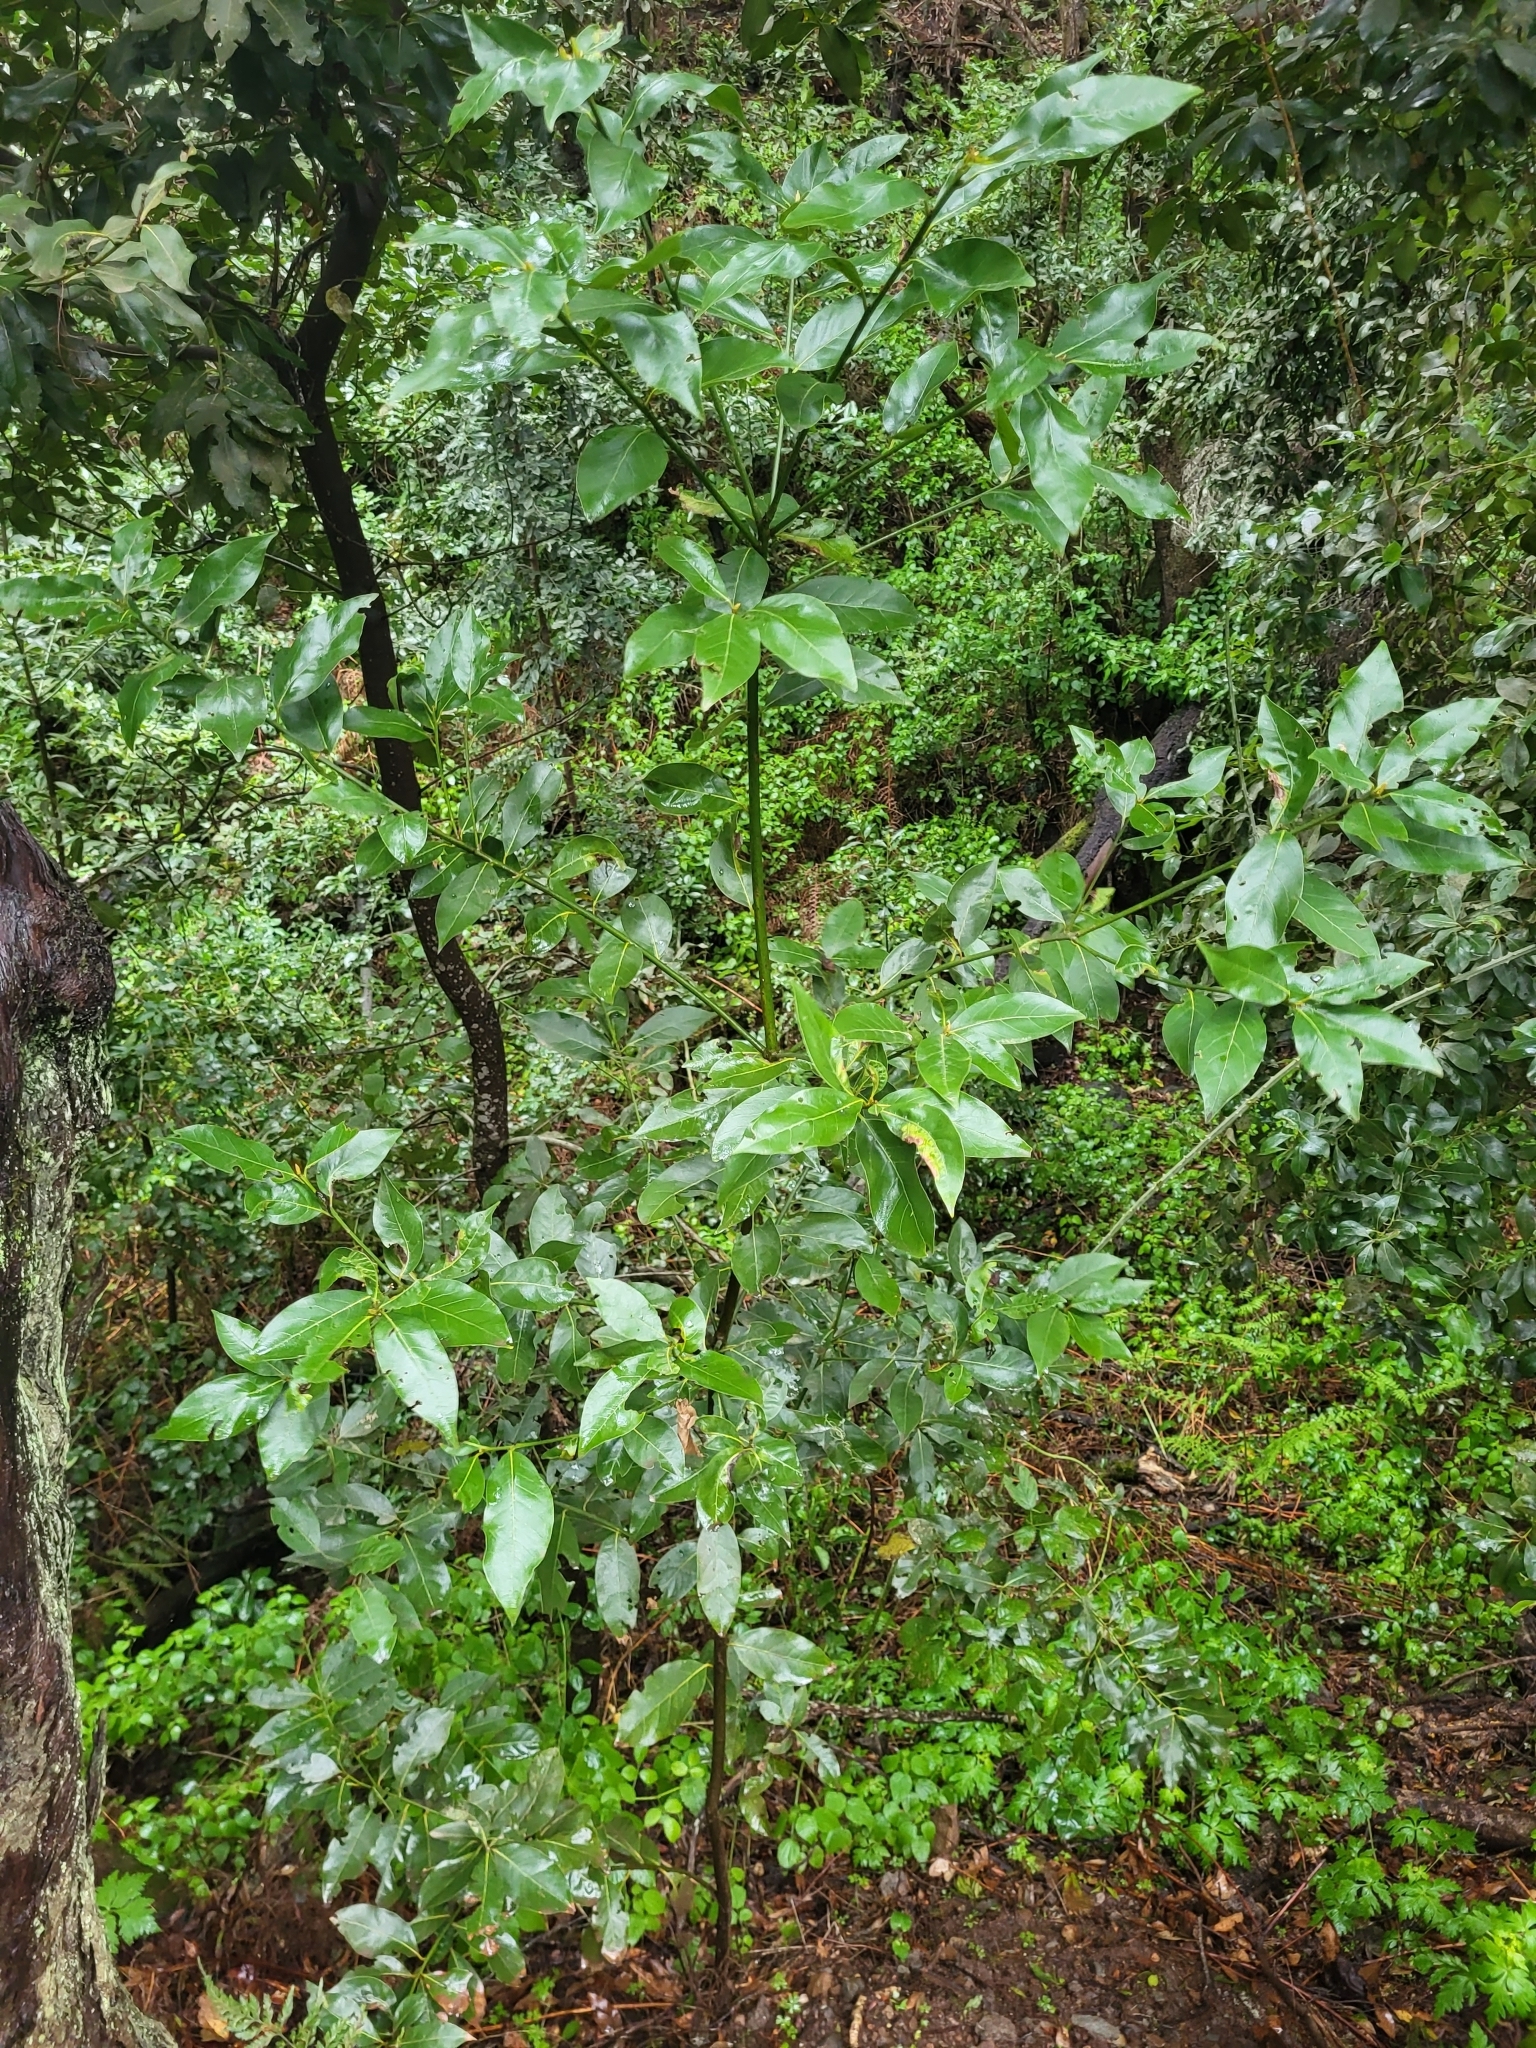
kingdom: Plantae
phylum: Tracheophyta
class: Magnoliopsida
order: Laurales
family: Lauraceae
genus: Laurus
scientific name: Laurus novocanariensis
